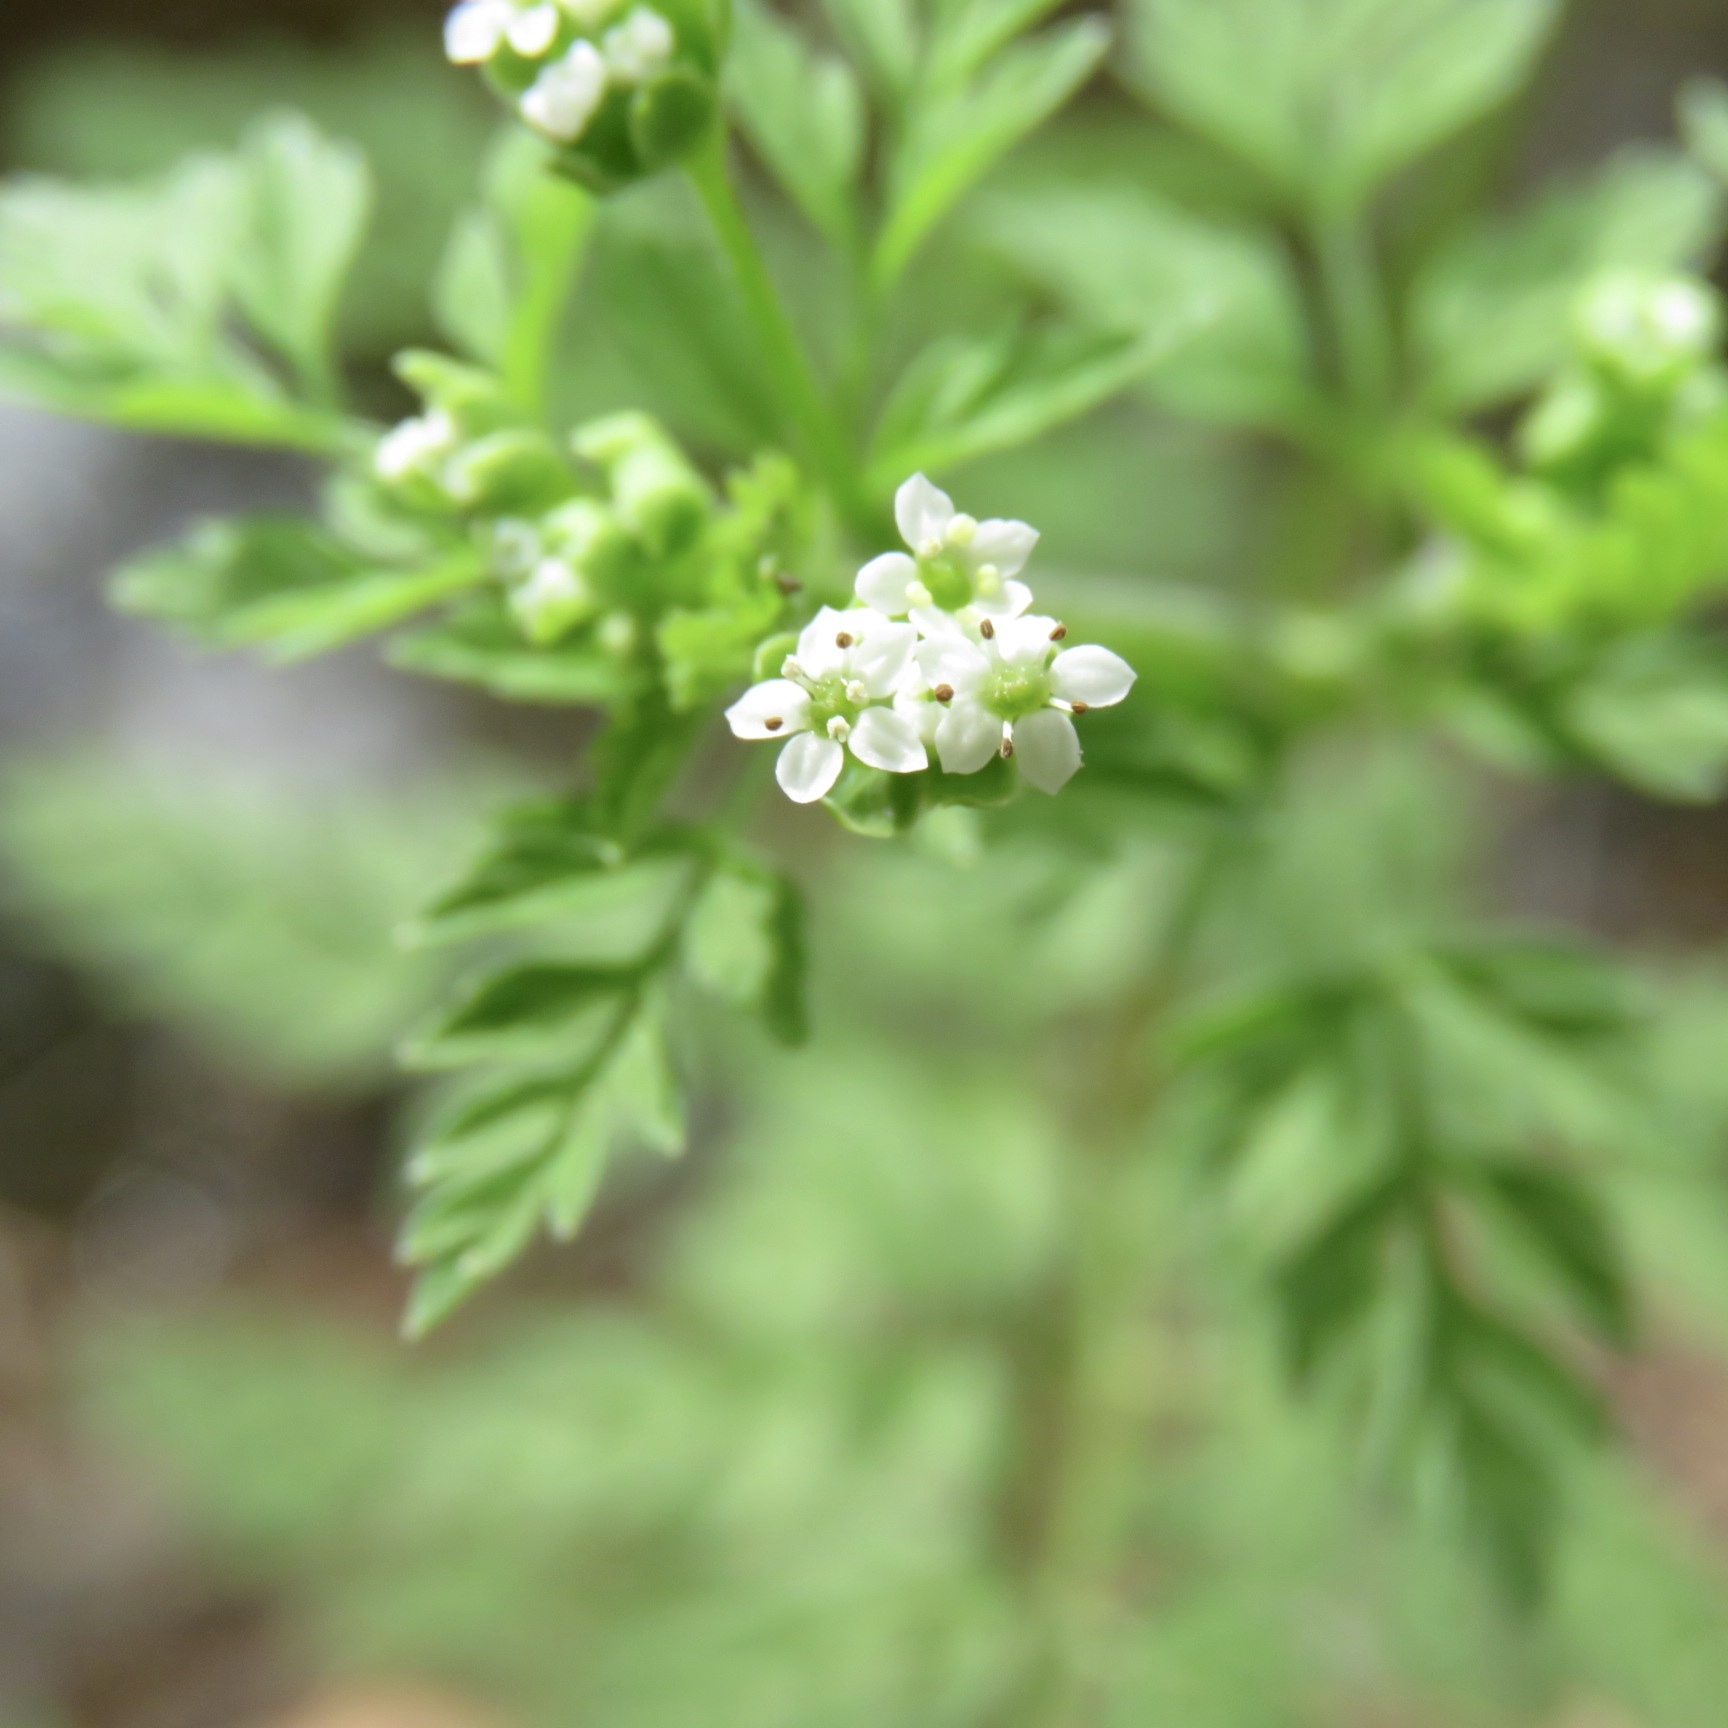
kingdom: Plantae
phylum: Tracheophyta
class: Magnoliopsida
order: Apiales
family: Apiaceae
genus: Chaerophyllum
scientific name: Chaerophyllum tainturieri
